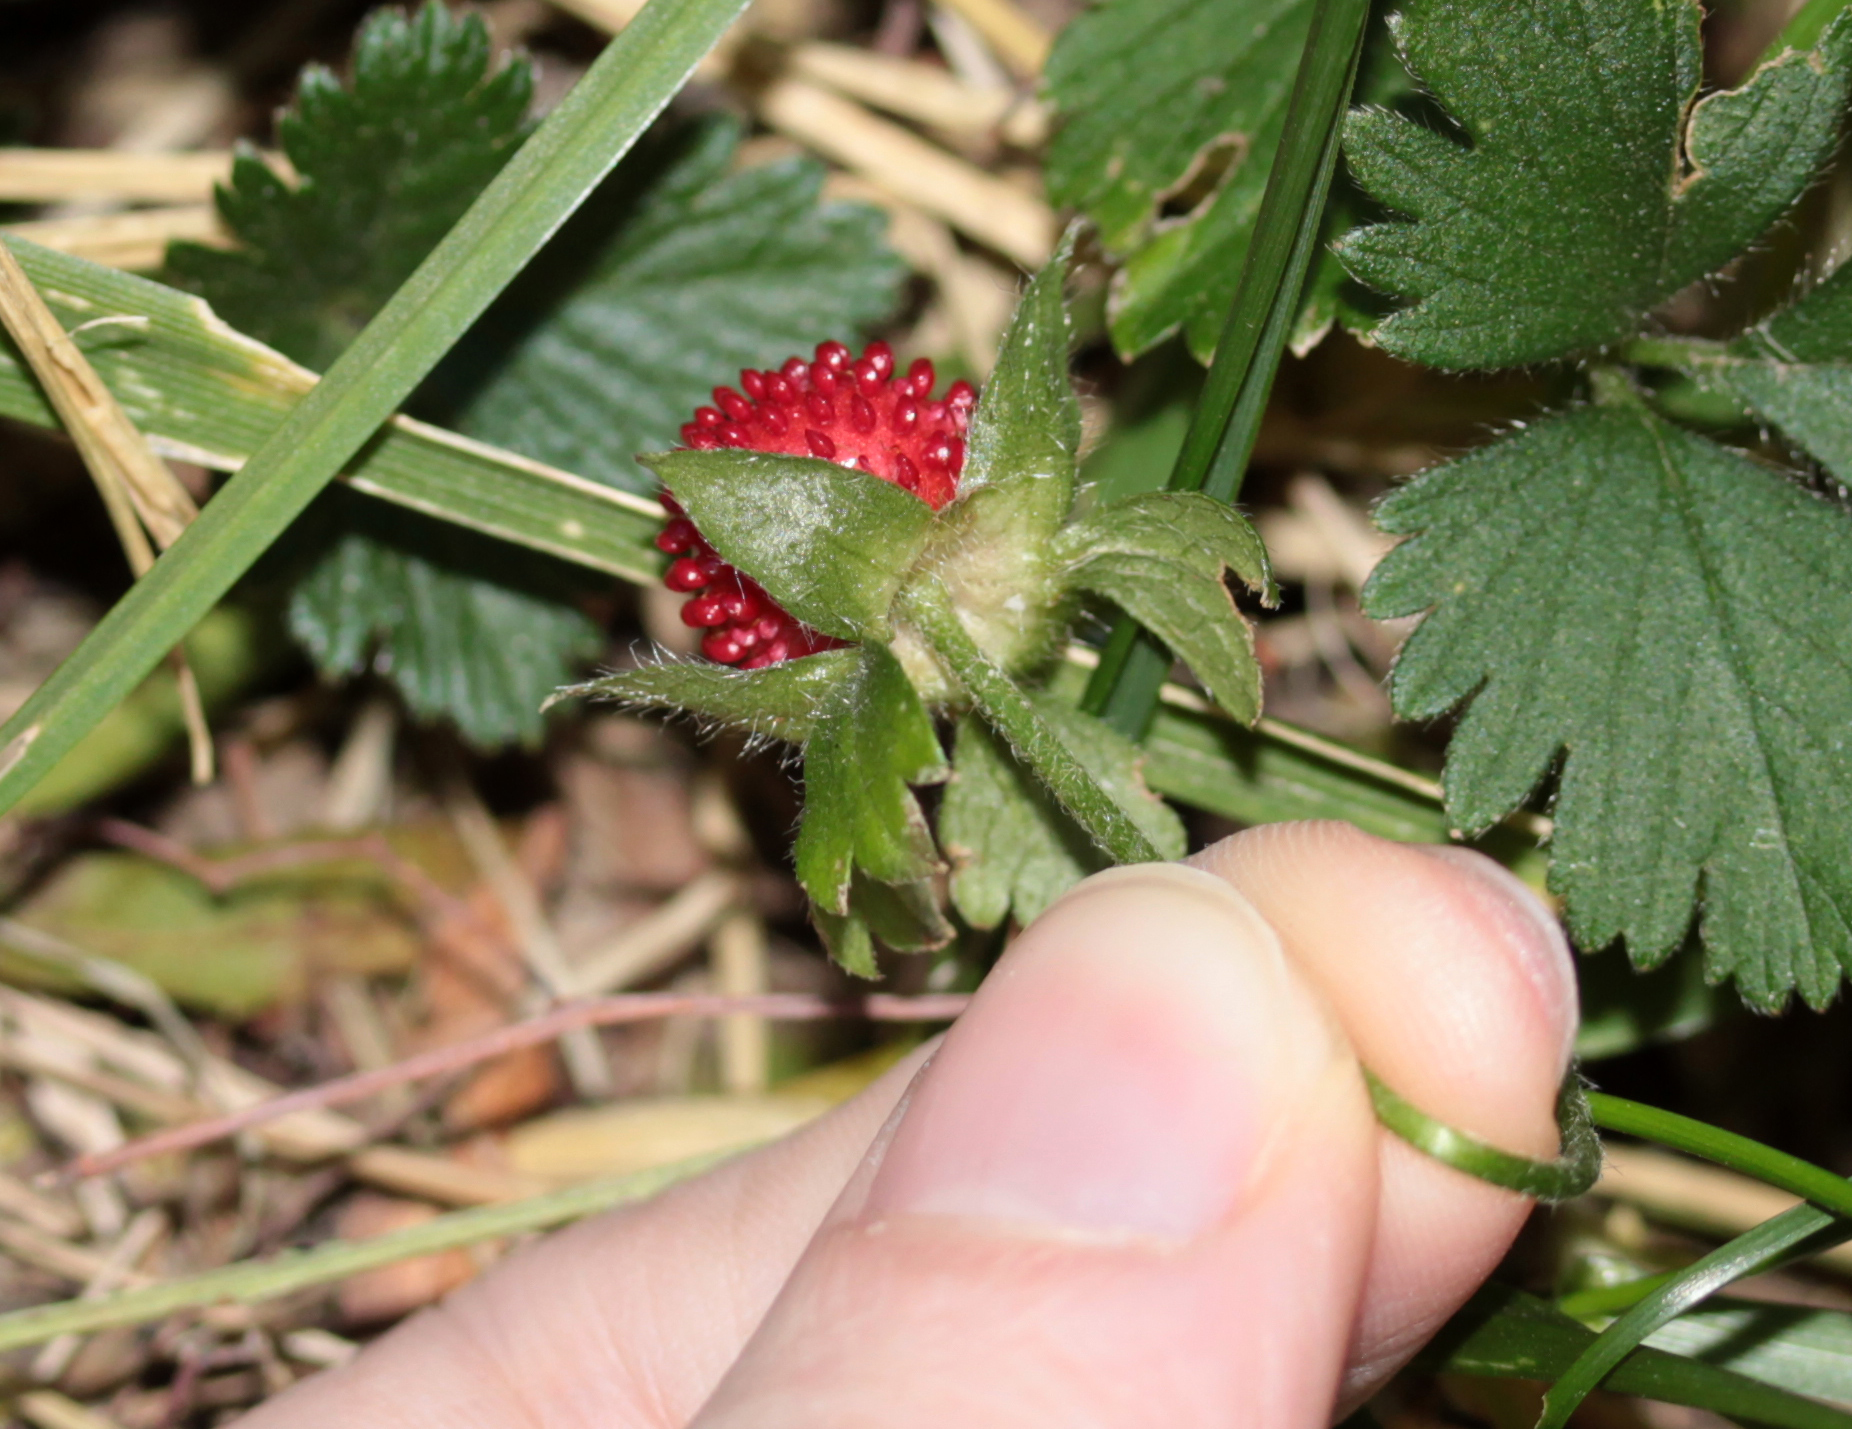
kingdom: Plantae
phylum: Tracheophyta
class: Magnoliopsida
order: Rosales
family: Rosaceae
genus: Potentilla
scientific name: Potentilla indica
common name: Yellow-flowered strawberry
